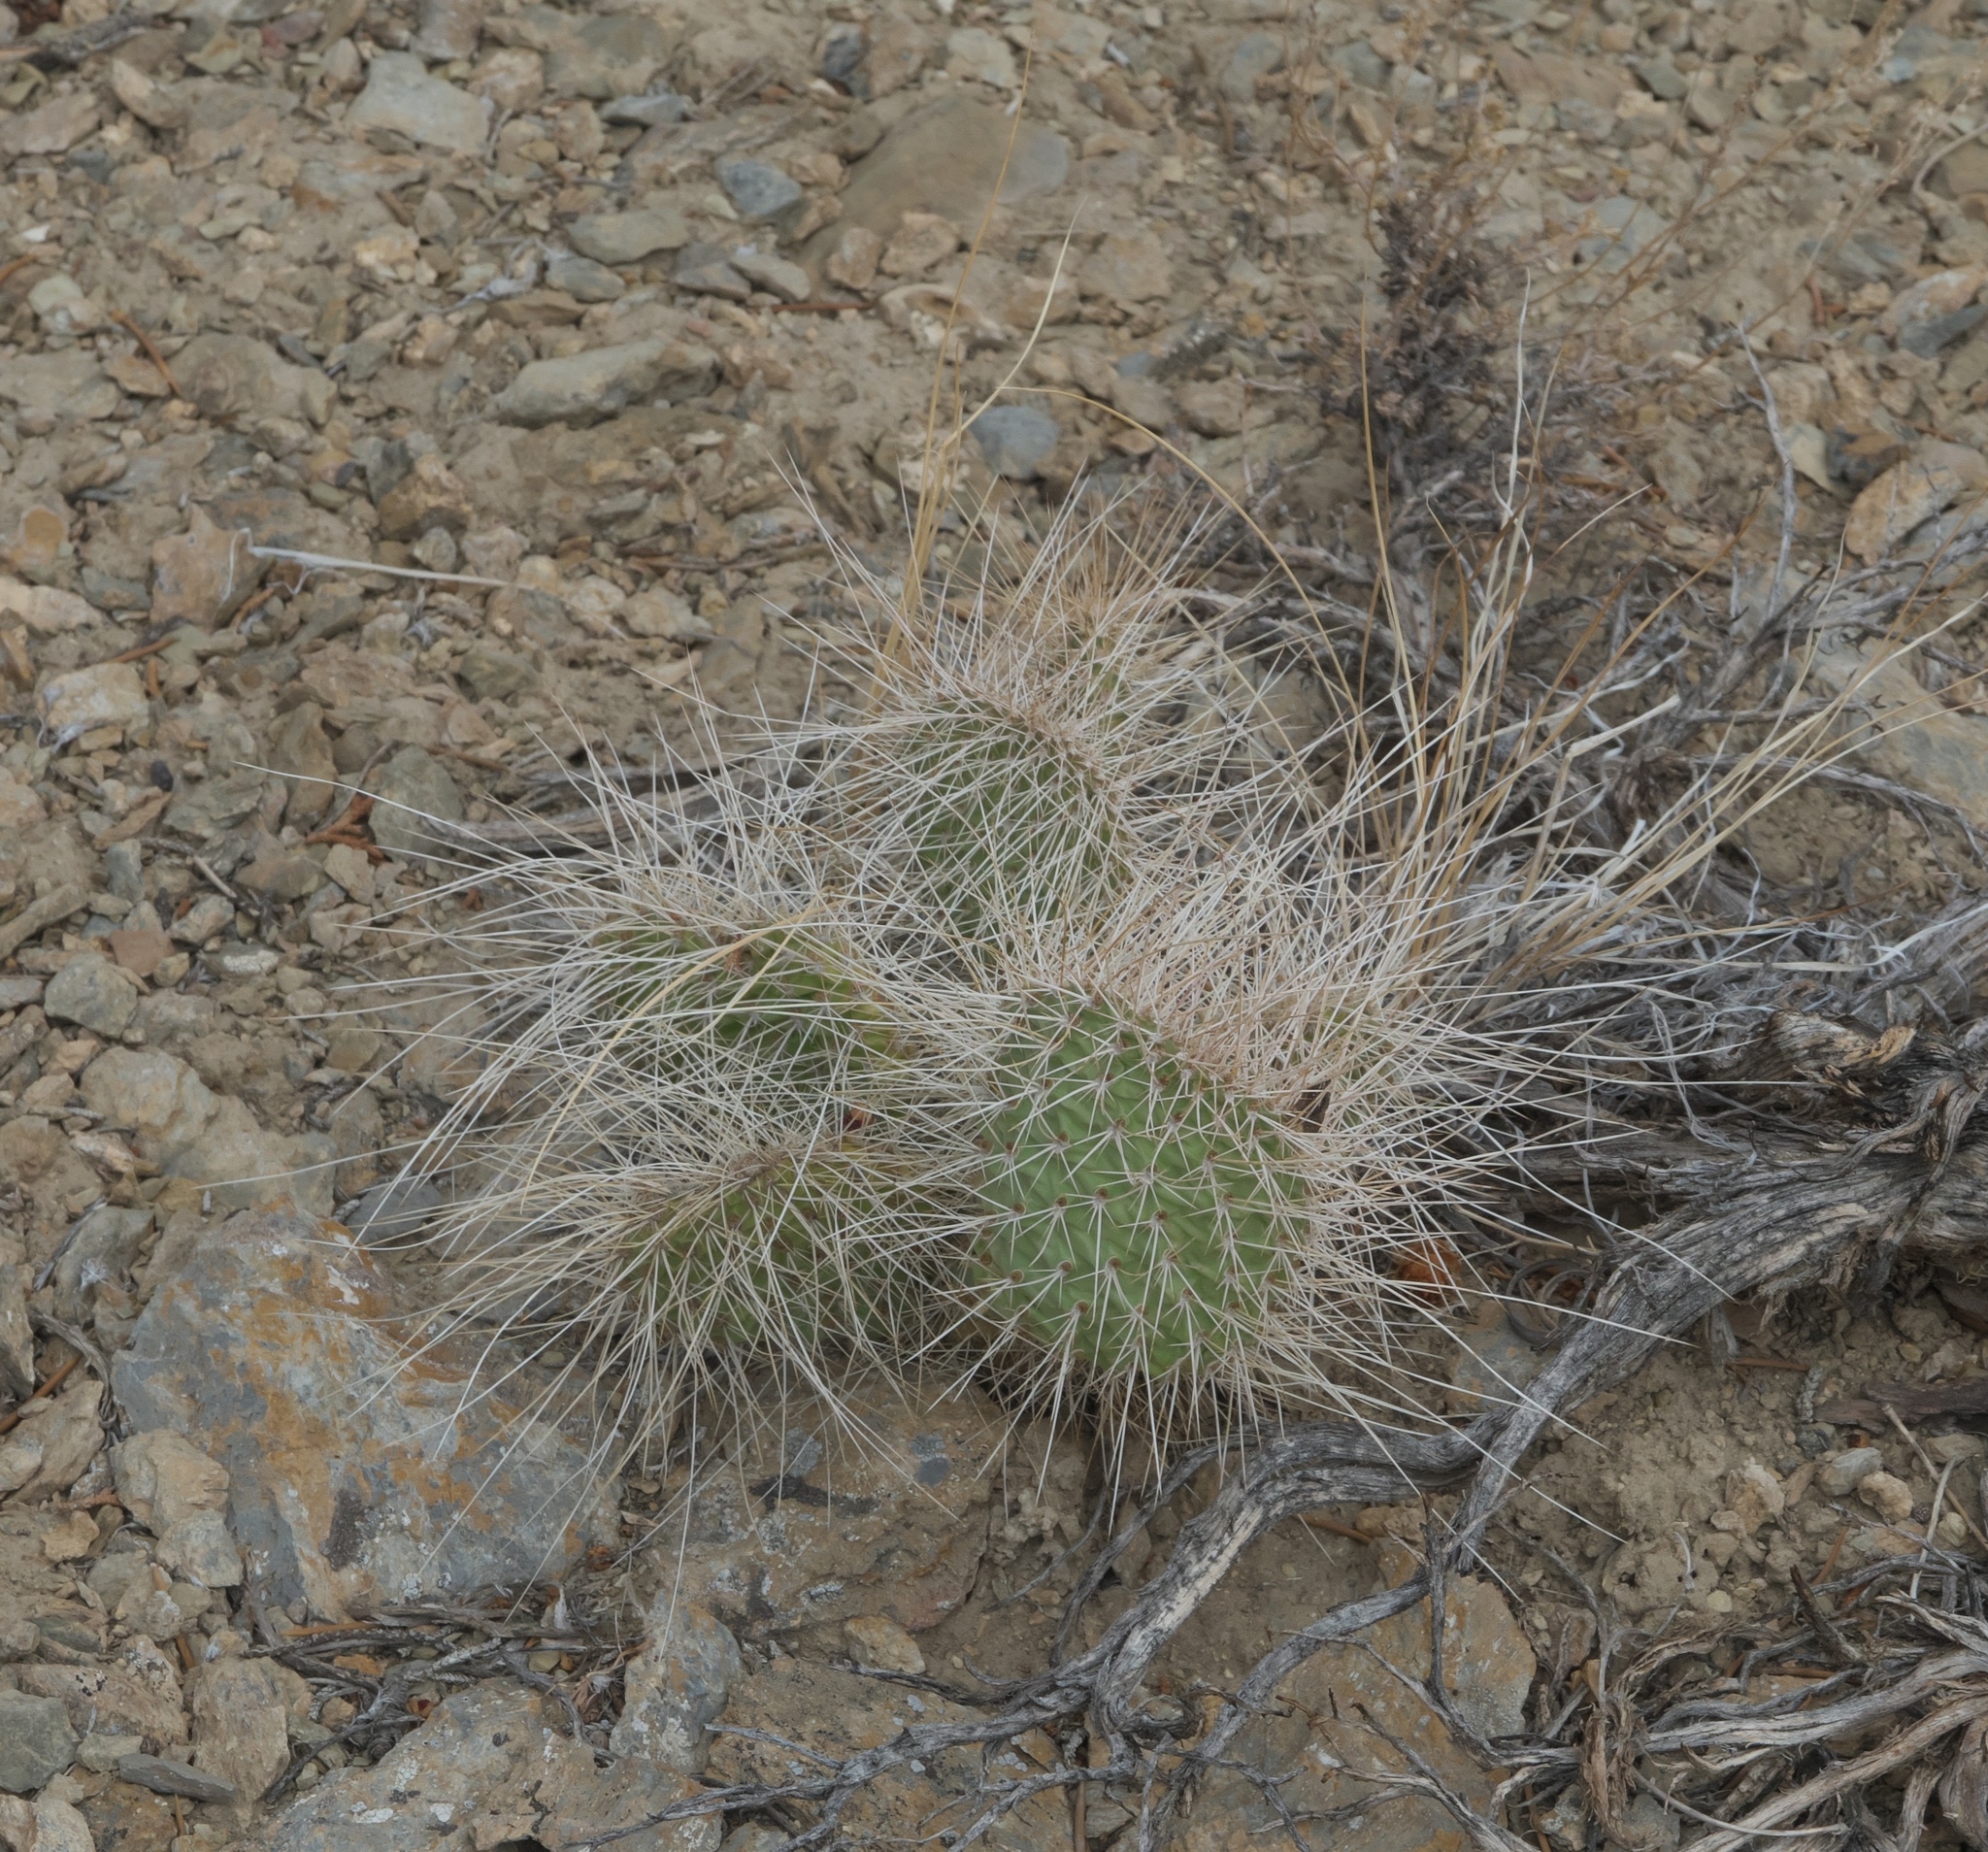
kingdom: Plantae
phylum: Tracheophyta
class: Magnoliopsida
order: Caryophyllales
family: Cactaceae
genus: Opuntia
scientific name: Opuntia polyacantha
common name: Plains prickly-pear
